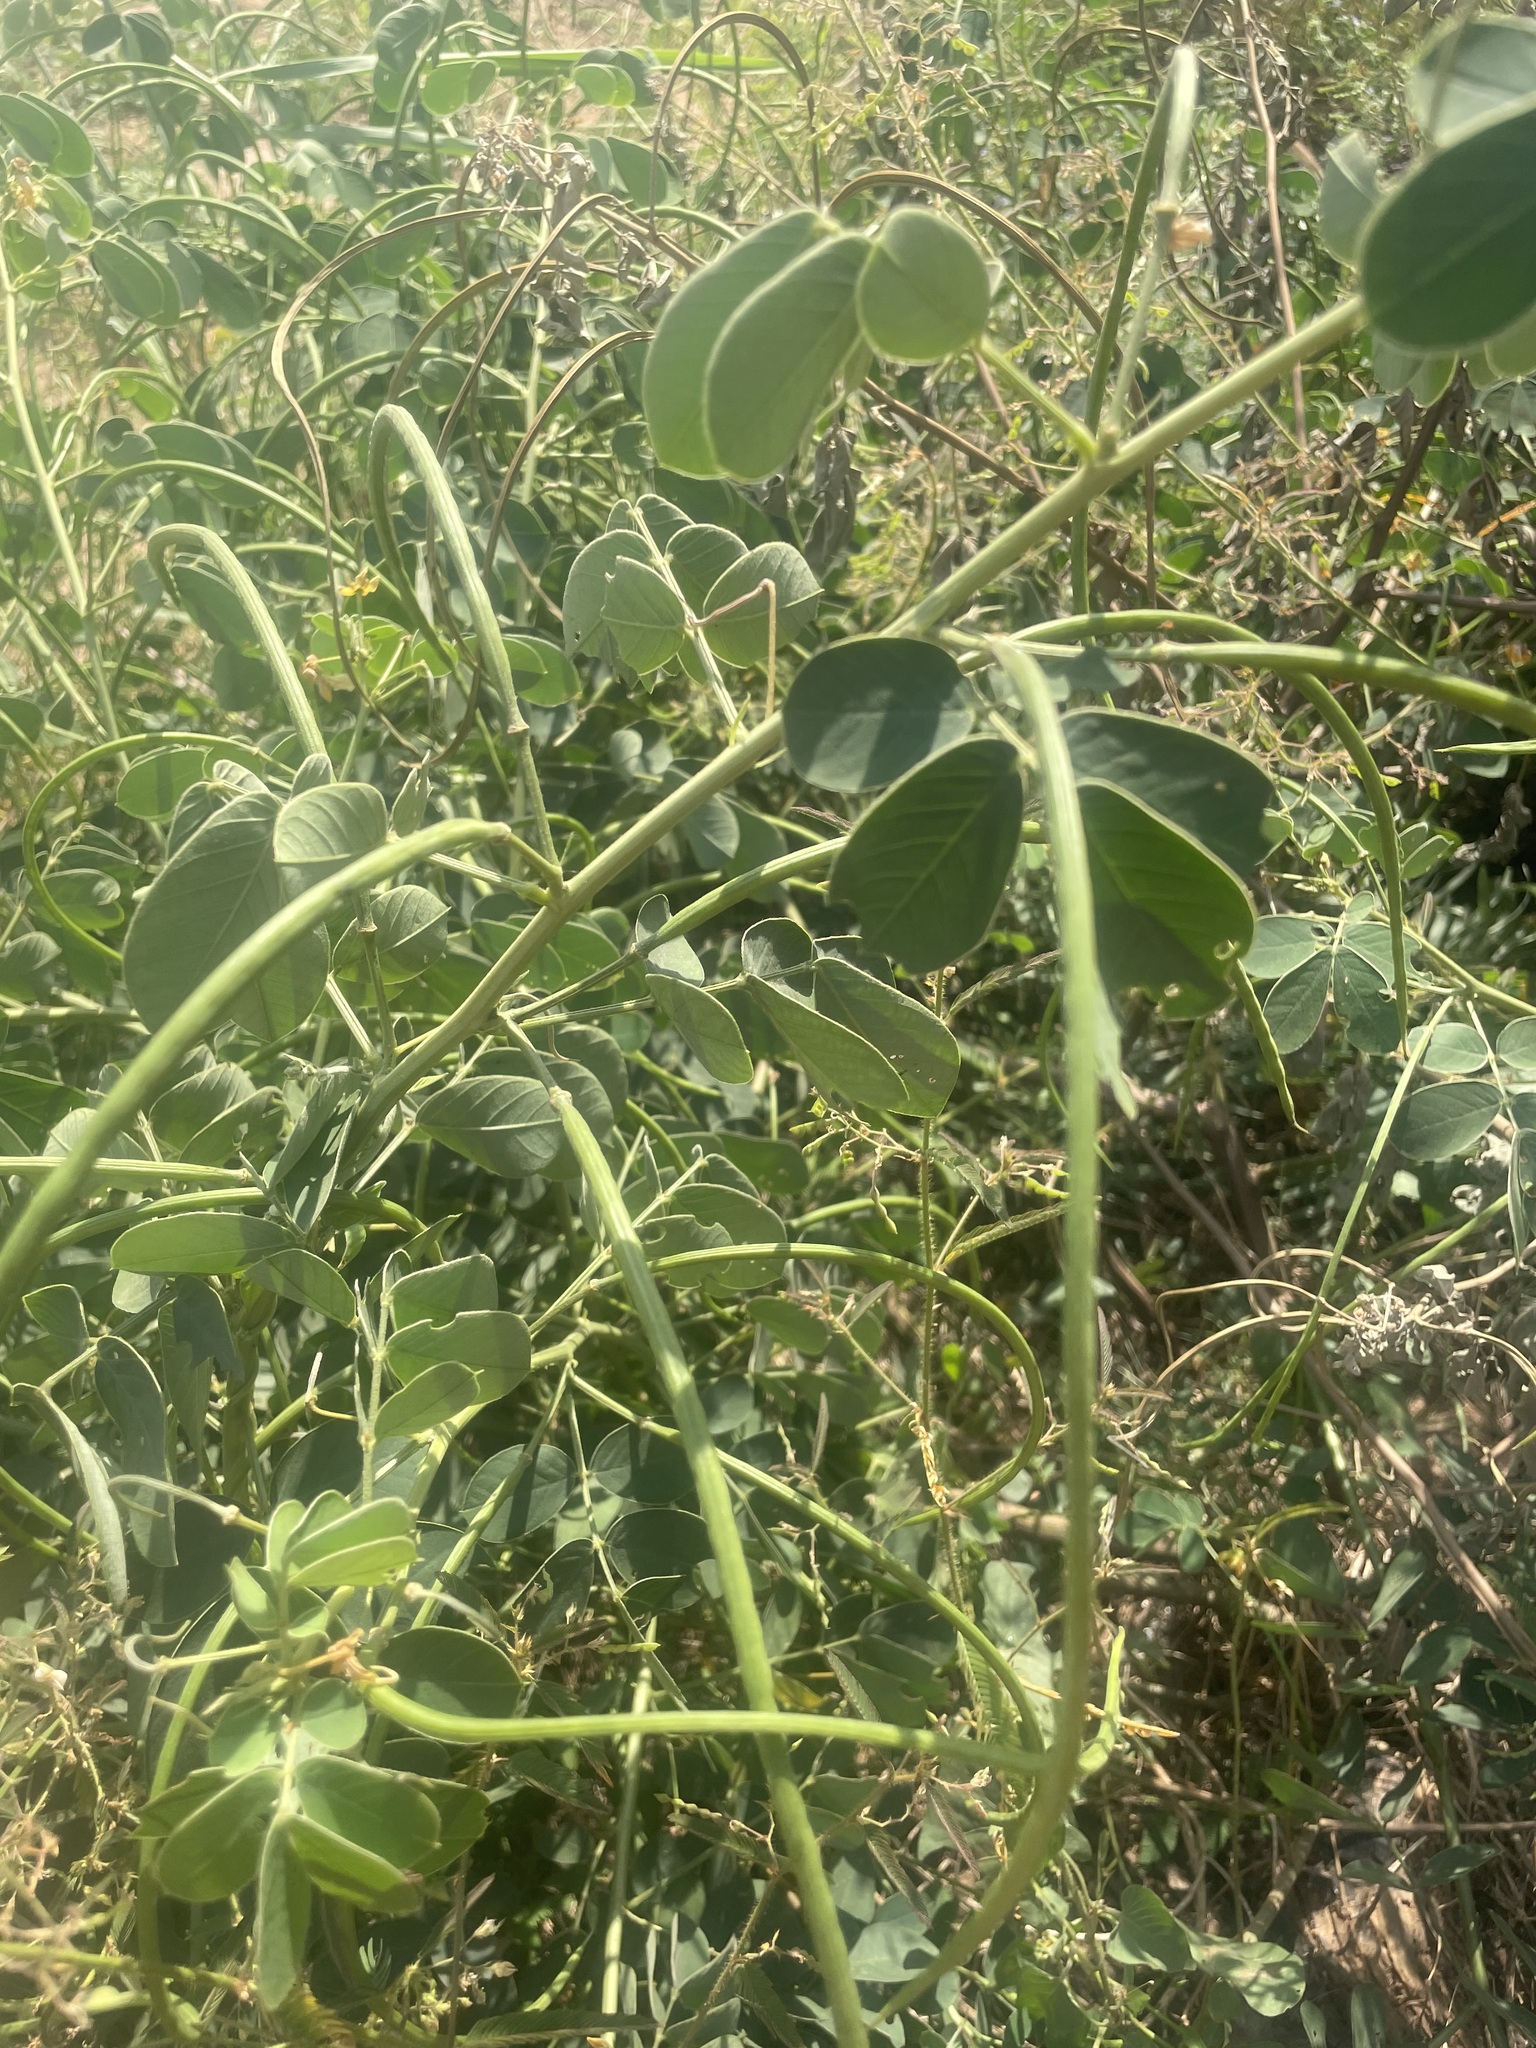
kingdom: Plantae
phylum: Tracheophyta
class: Magnoliopsida
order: Fabales
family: Fabaceae
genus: Senna
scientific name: Senna obtusifolia
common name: Java-bean
